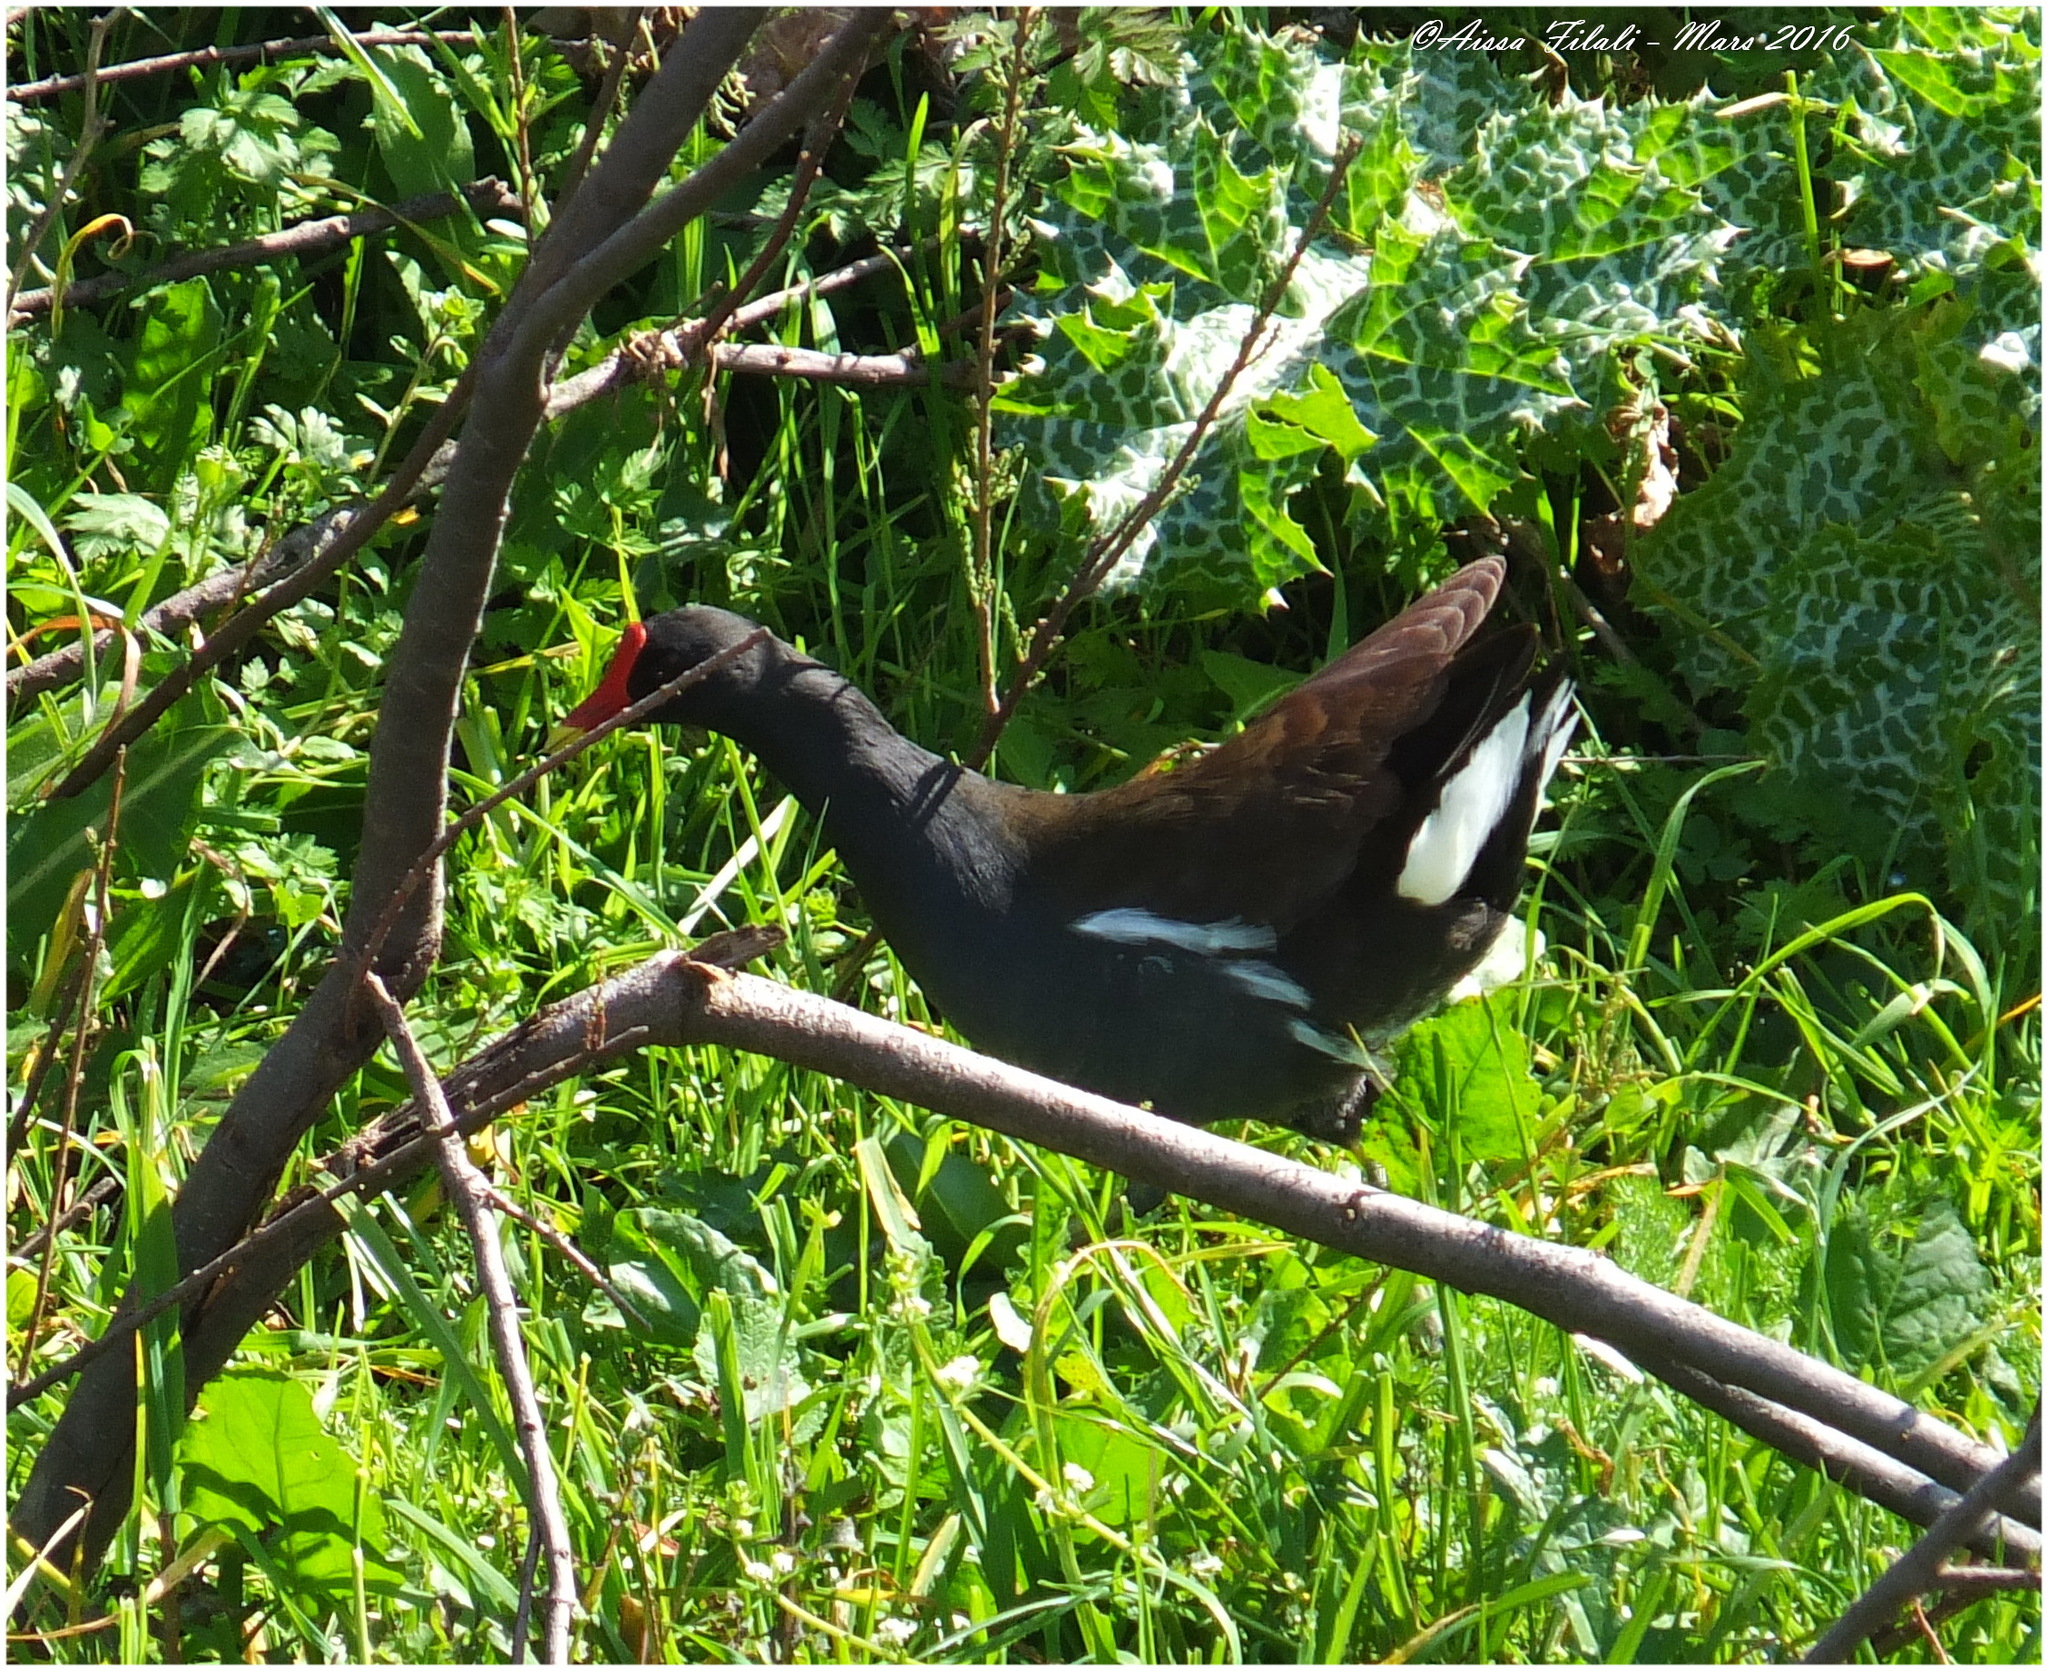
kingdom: Animalia
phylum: Chordata
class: Aves
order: Gruiformes
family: Rallidae
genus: Gallinula
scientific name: Gallinula chloropus
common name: Common moorhen
